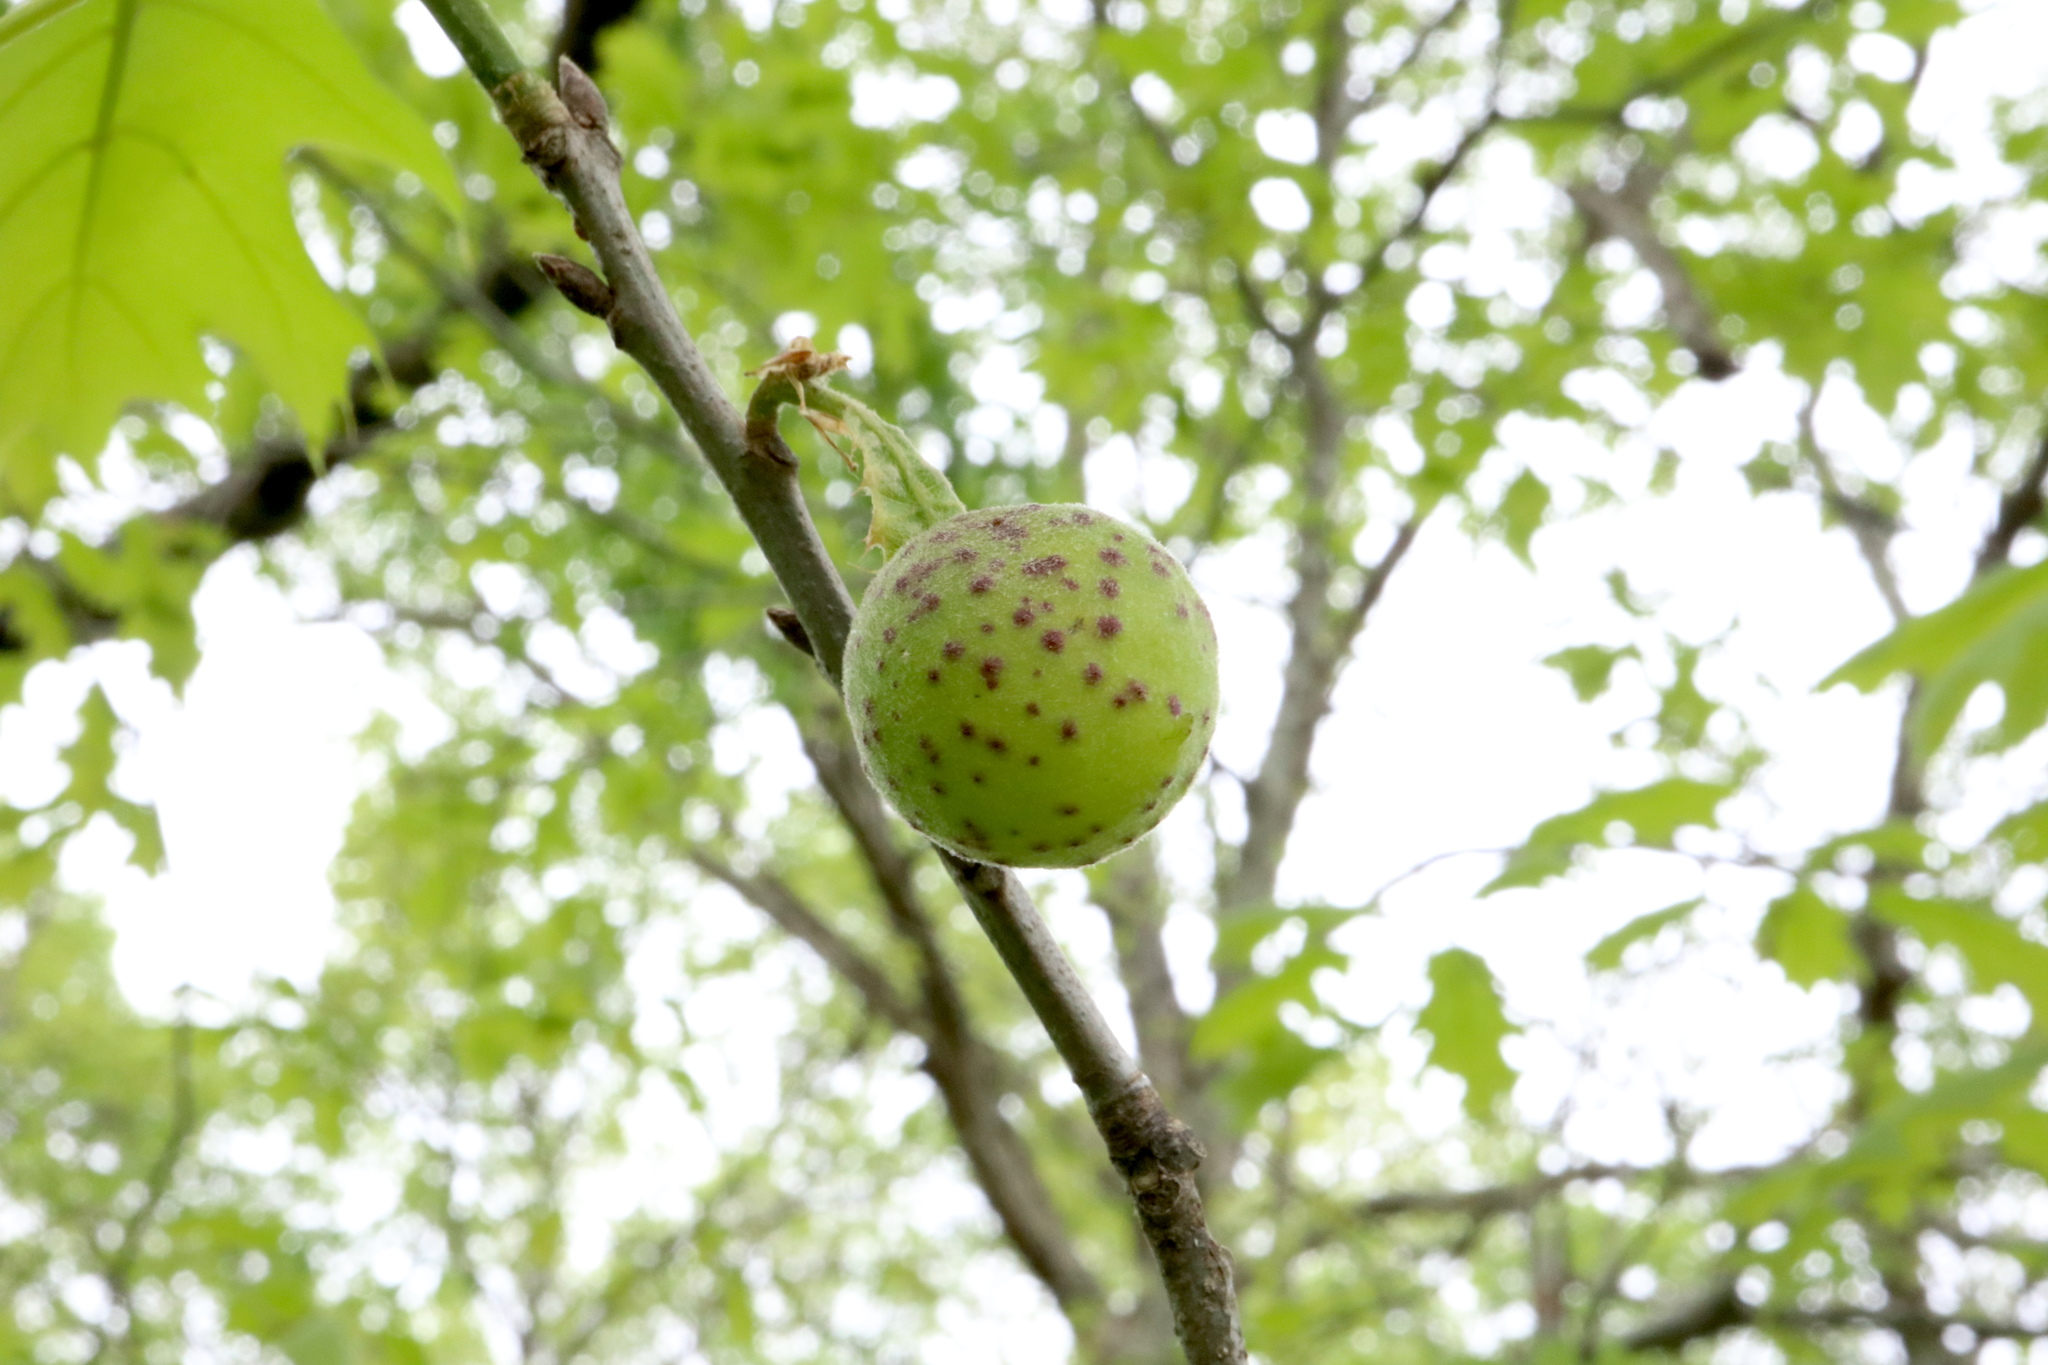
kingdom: Animalia
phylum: Arthropoda
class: Insecta
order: Hymenoptera
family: Cynipidae
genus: Amphibolips
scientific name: Amphibolips
